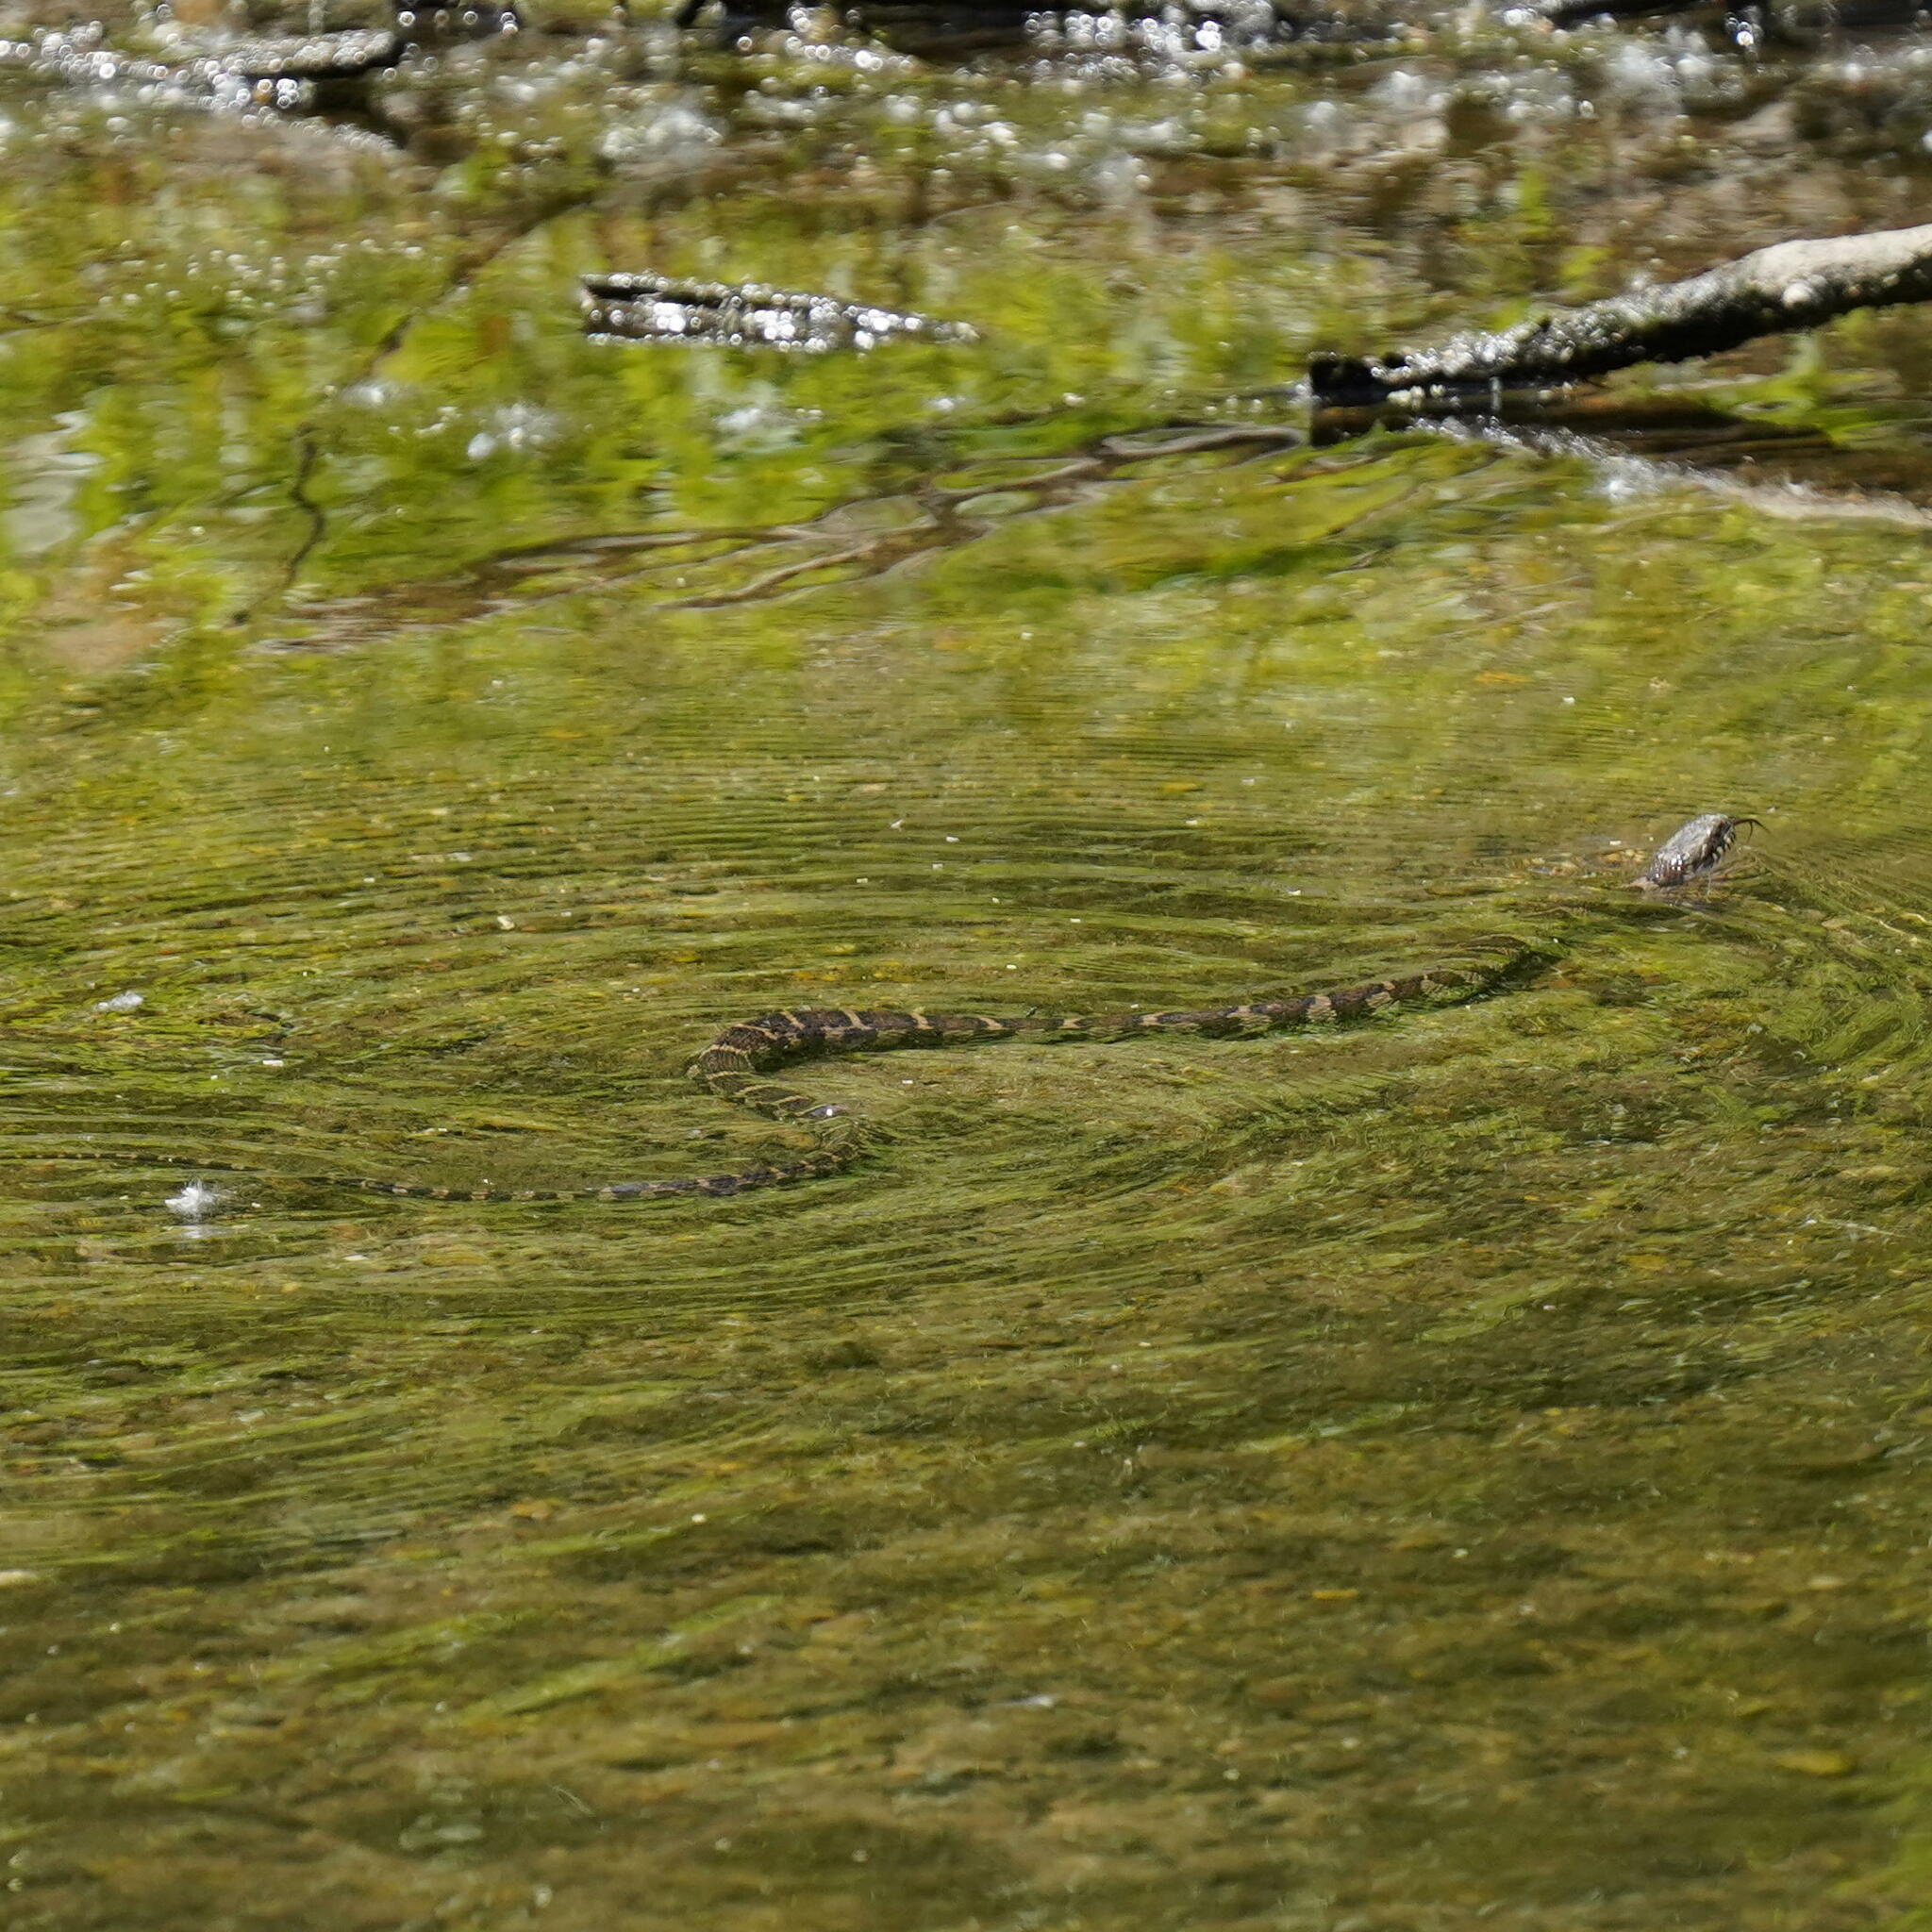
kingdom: Animalia
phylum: Chordata
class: Squamata
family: Colubridae
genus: Nerodia
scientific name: Nerodia sipedon
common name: Northern water snake
